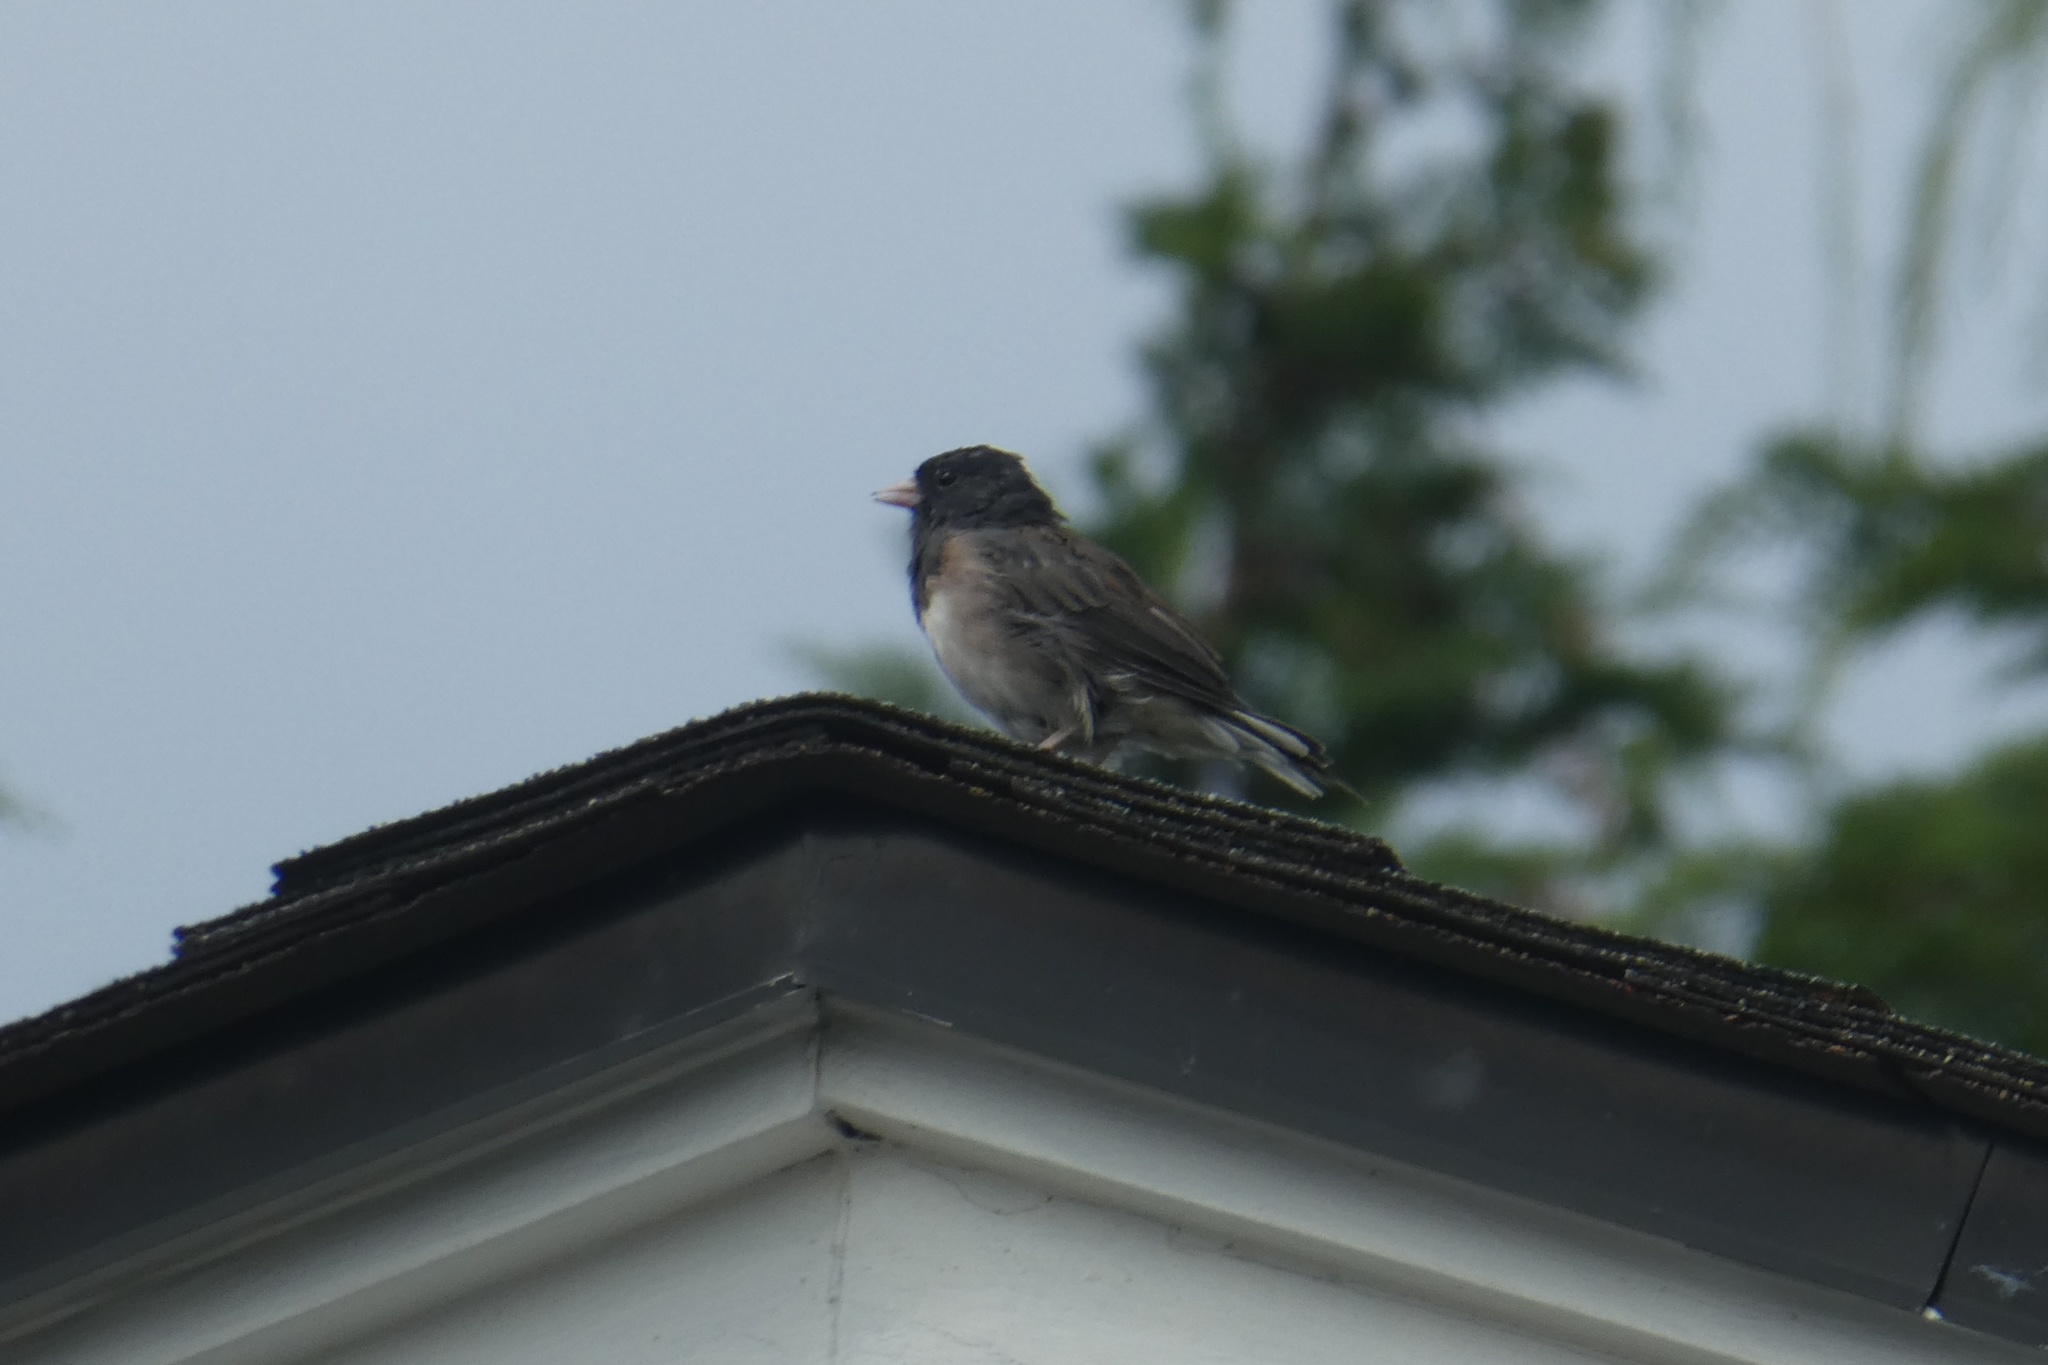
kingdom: Animalia
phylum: Chordata
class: Aves
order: Passeriformes
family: Passerellidae
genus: Junco
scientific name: Junco hyemalis
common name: Dark-eyed junco
